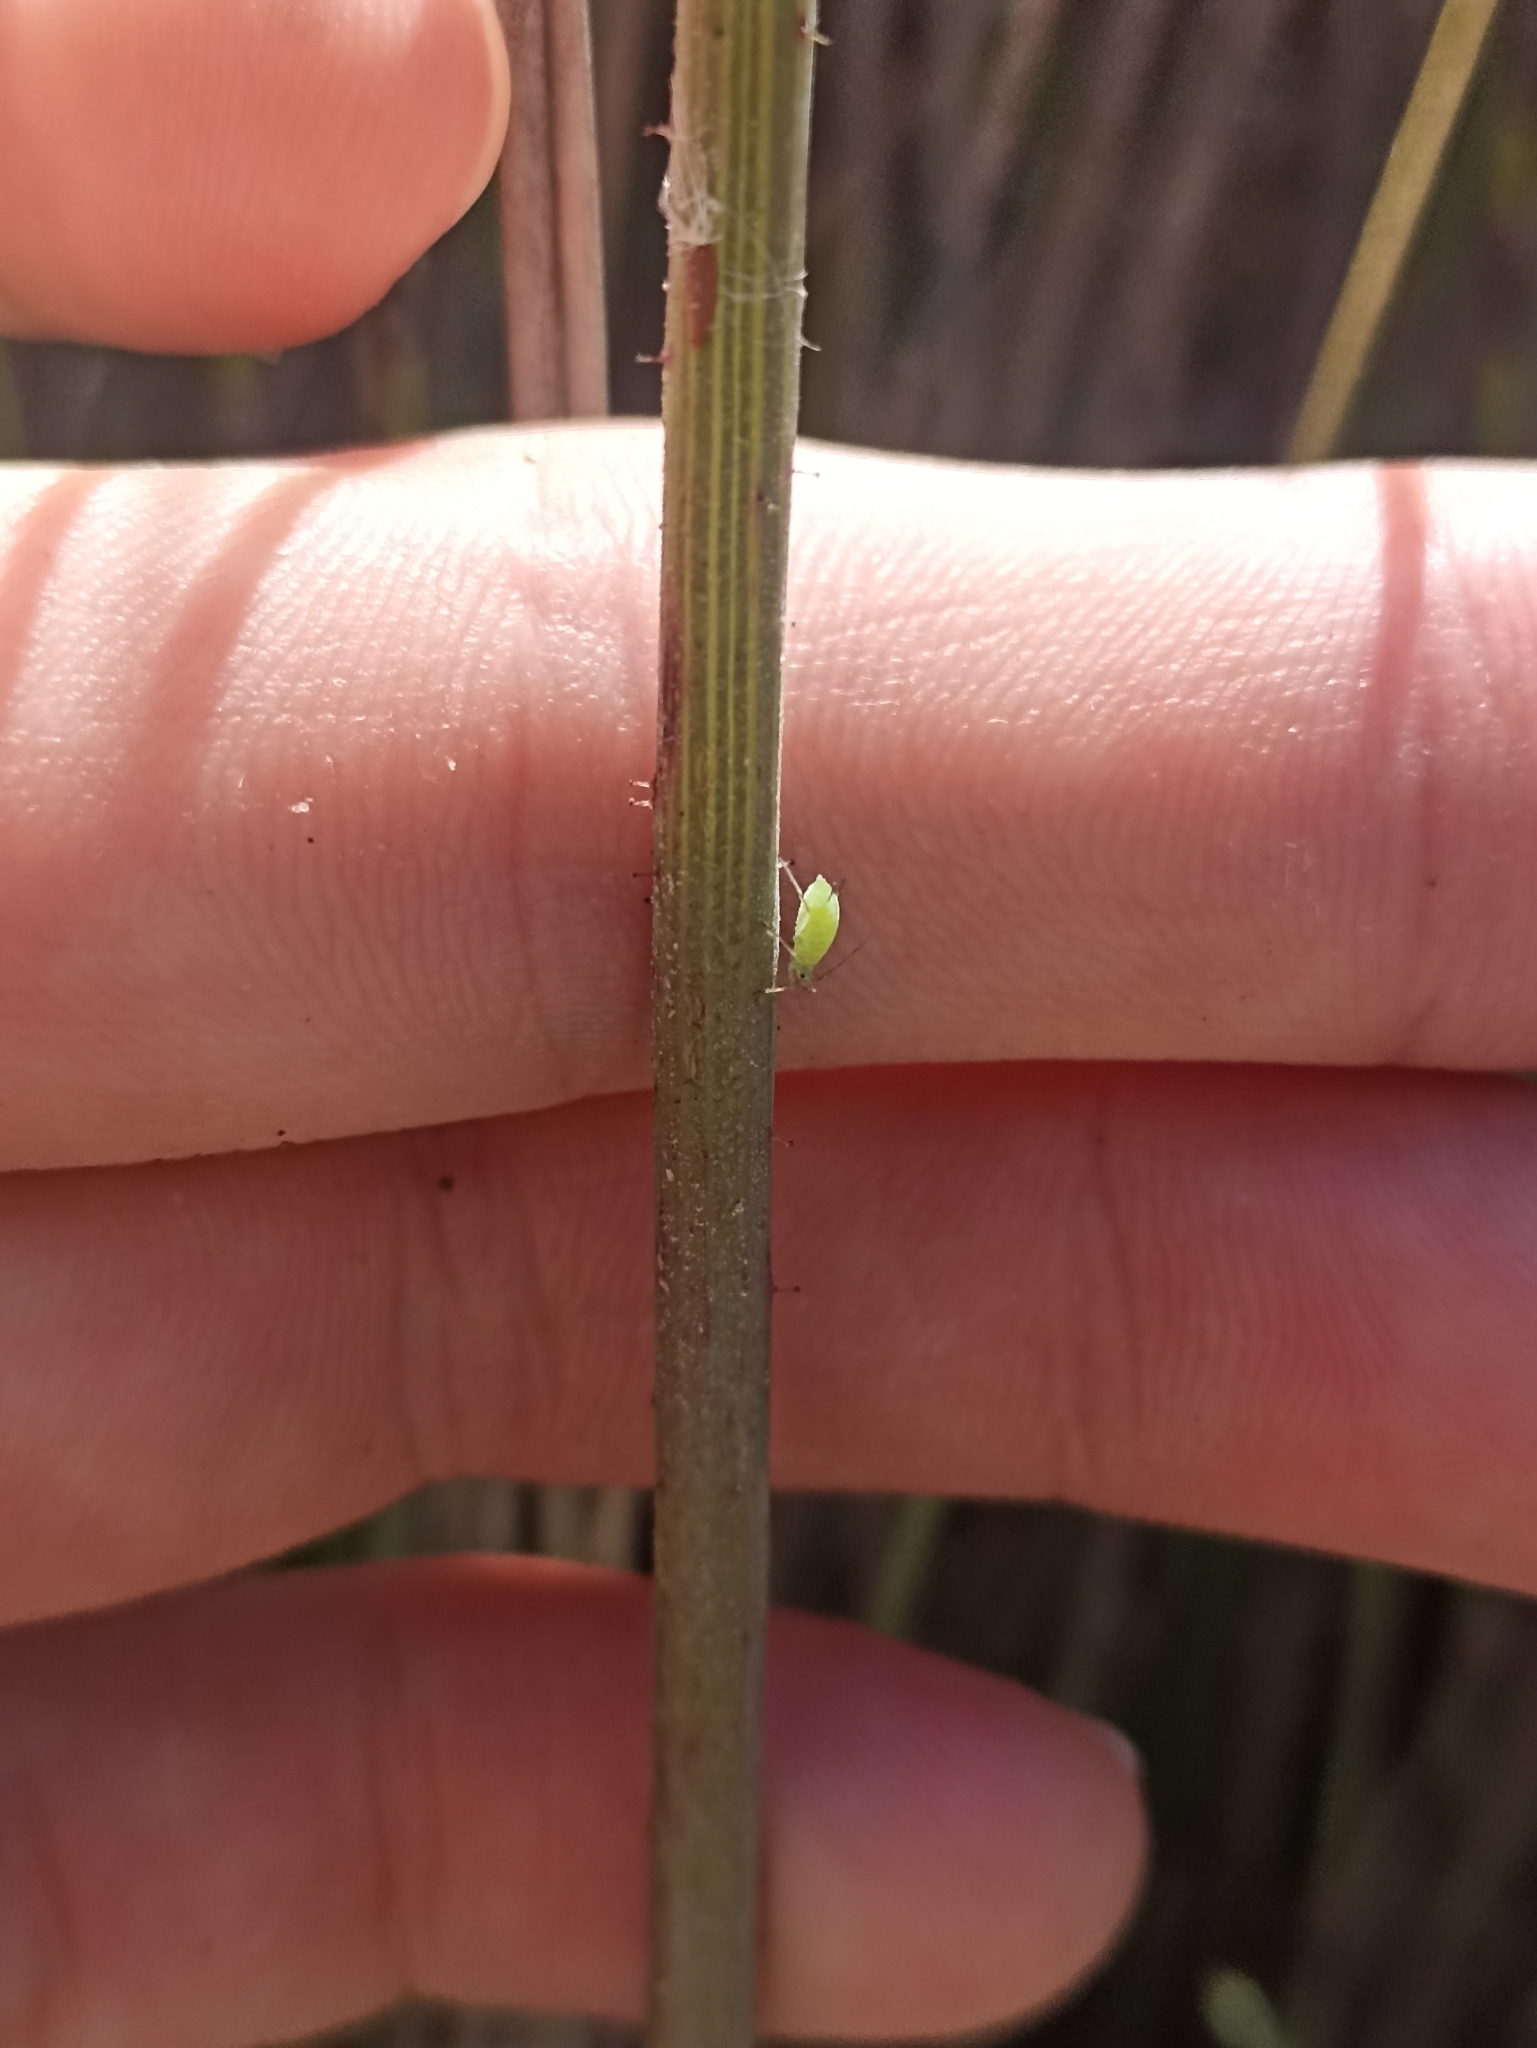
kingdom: Plantae
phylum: Tracheophyta
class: Magnoliopsida
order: Asterales
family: Asteraceae
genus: Sonchus
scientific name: Sonchus oleraceus
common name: Common sowthistle
